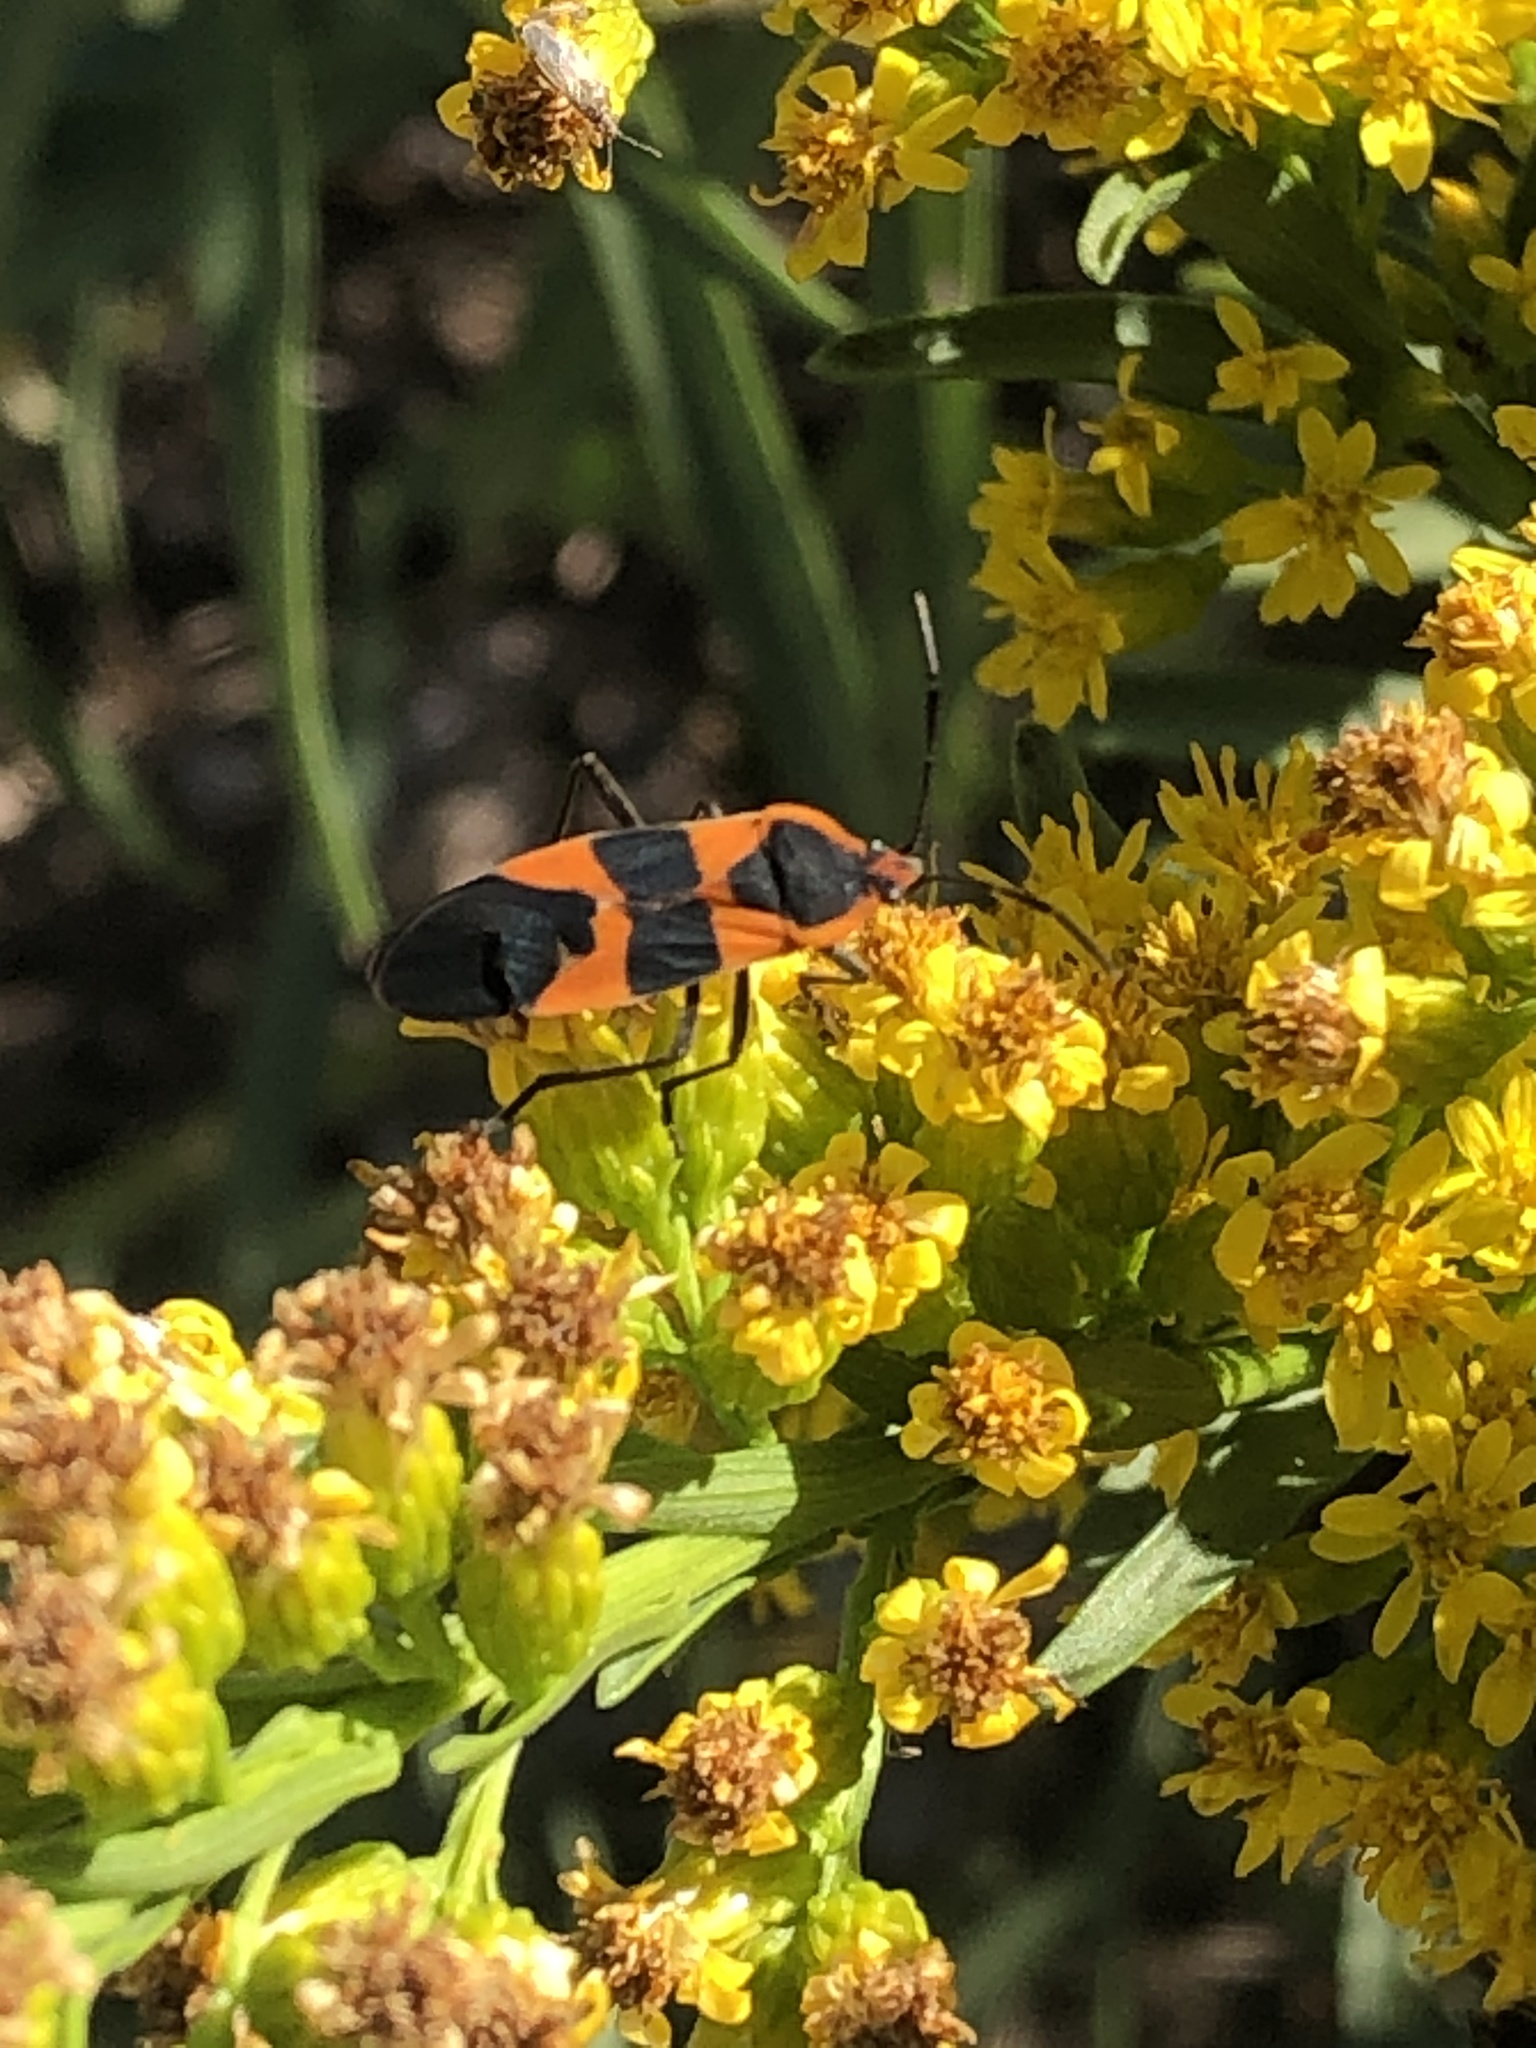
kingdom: Animalia
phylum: Arthropoda
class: Insecta
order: Hemiptera
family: Lygaeidae
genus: Oncopeltus
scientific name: Oncopeltus fasciatus
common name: Large milkweed bug
